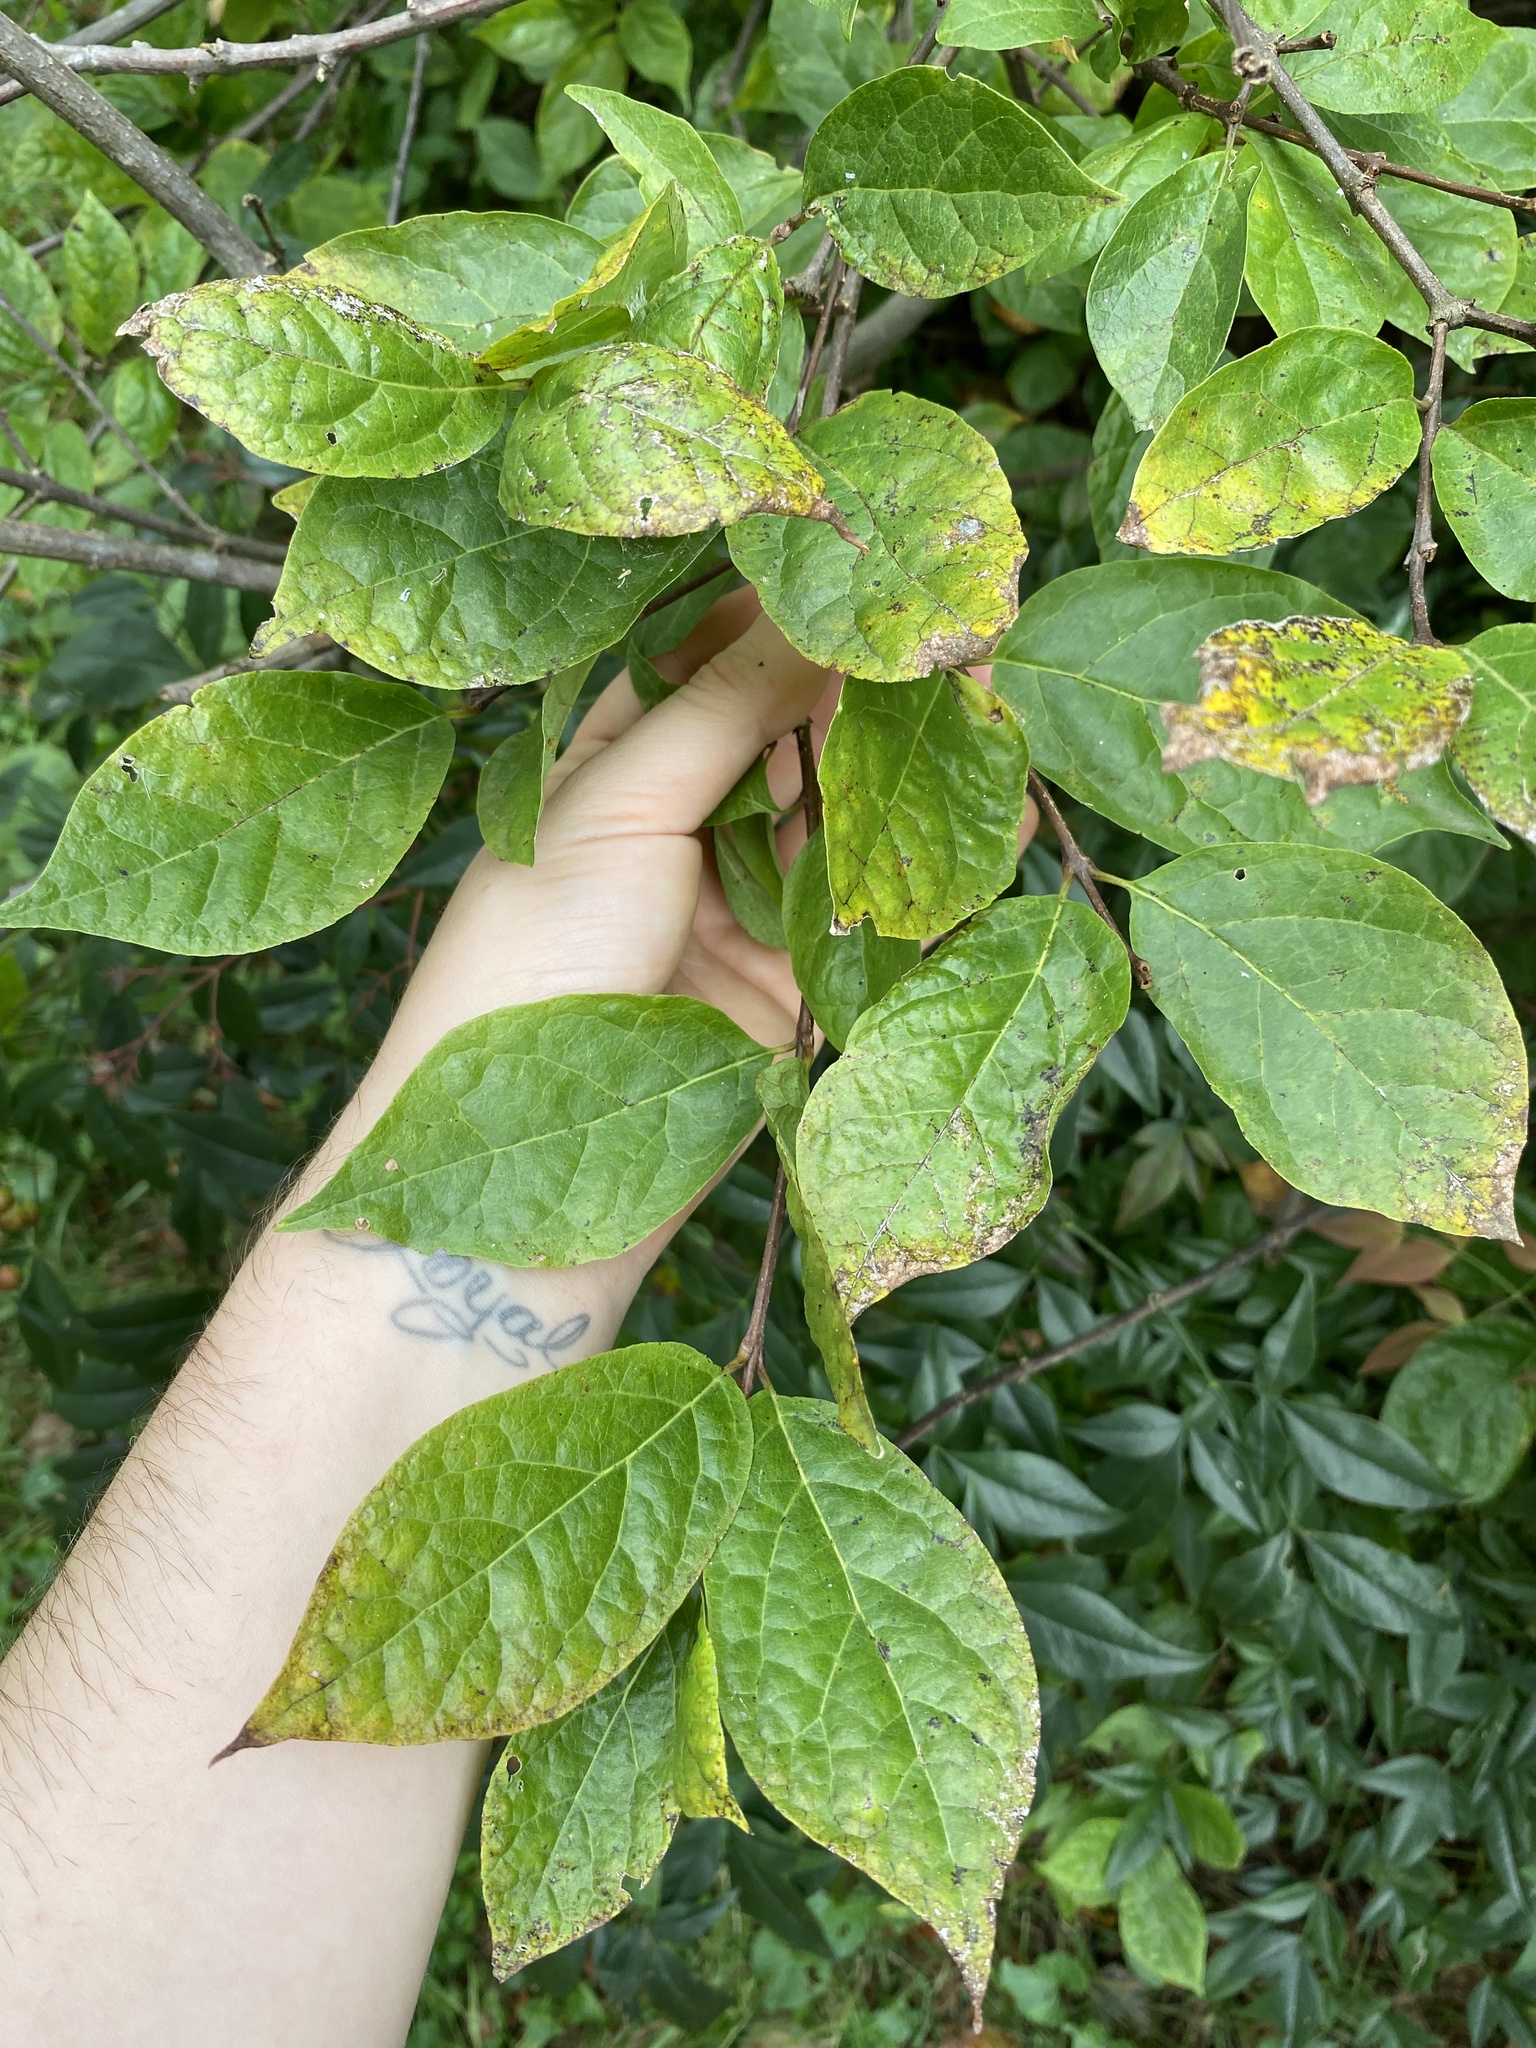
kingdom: Plantae
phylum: Tracheophyta
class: Magnoliopsida
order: Laurales
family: Calycanthaceae
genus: Calycanthus
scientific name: Calycanthus floridus
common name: Carolina-allspice
